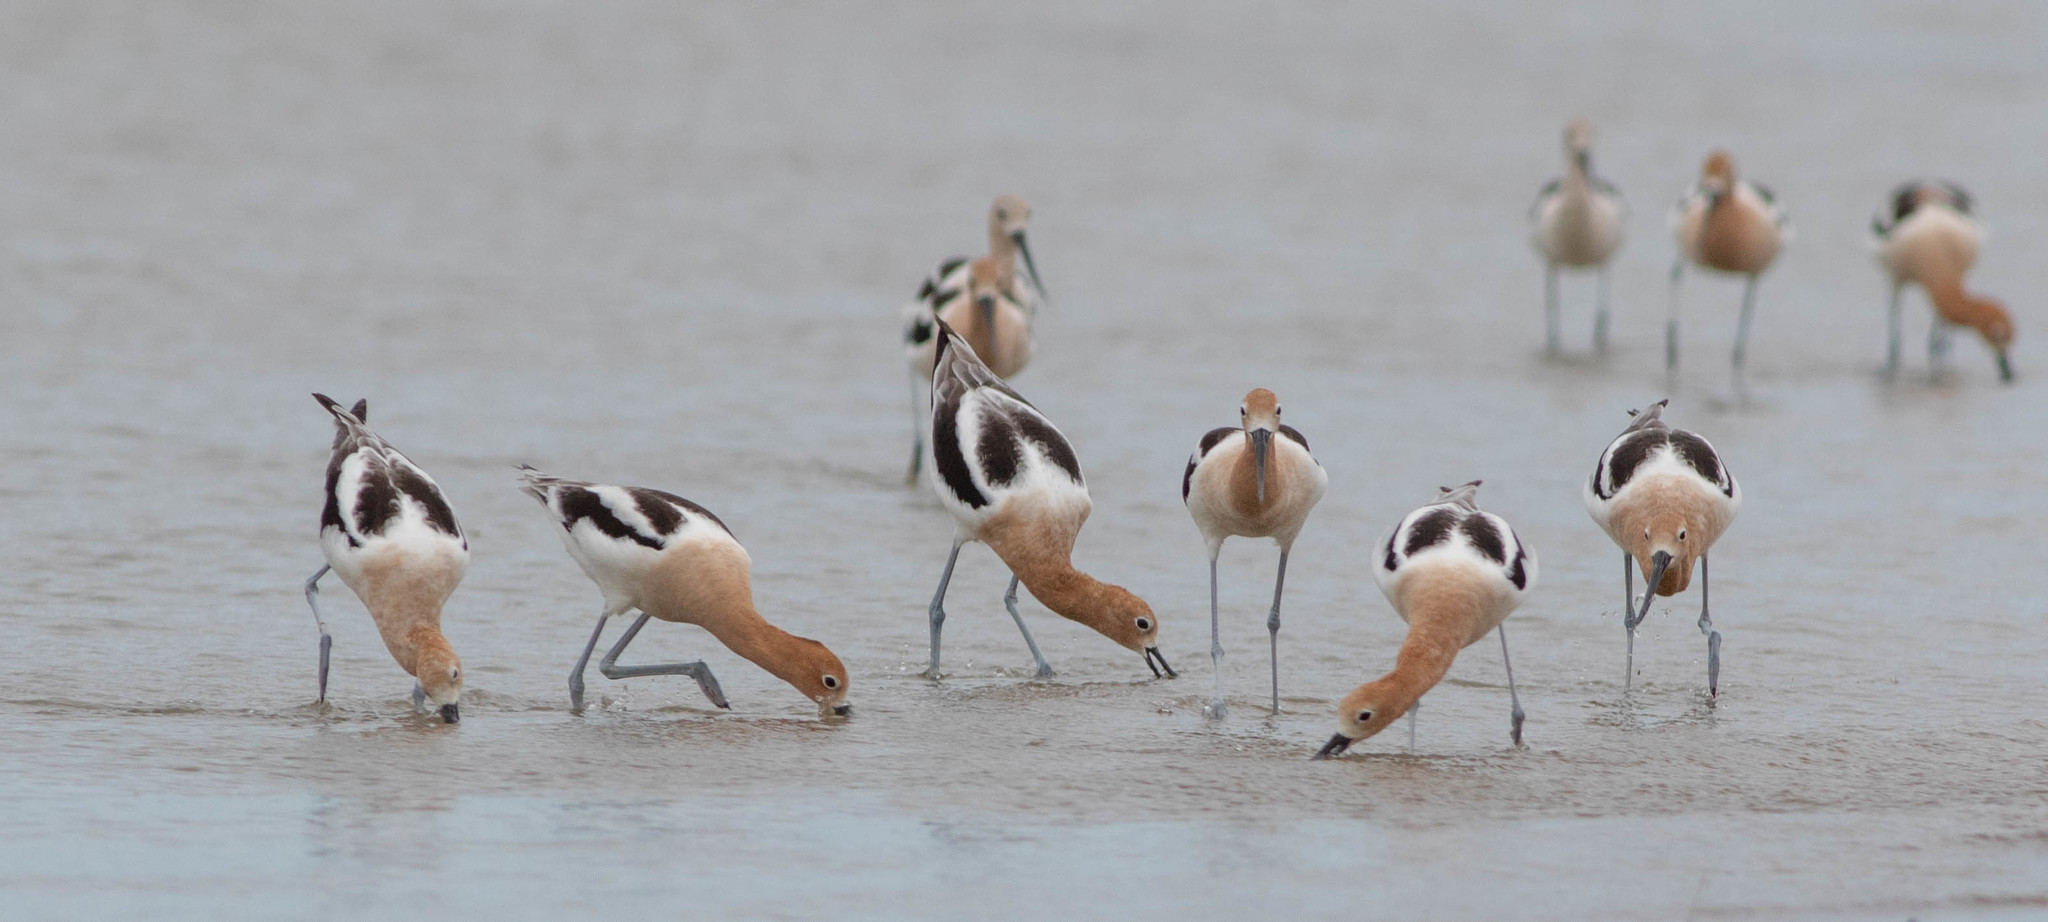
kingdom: Animalia
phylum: Chordata
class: Aves
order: Charadriiformes
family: Recurvirostridae
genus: Recurvirostra
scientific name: Recurvirostra americana
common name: American avocet
